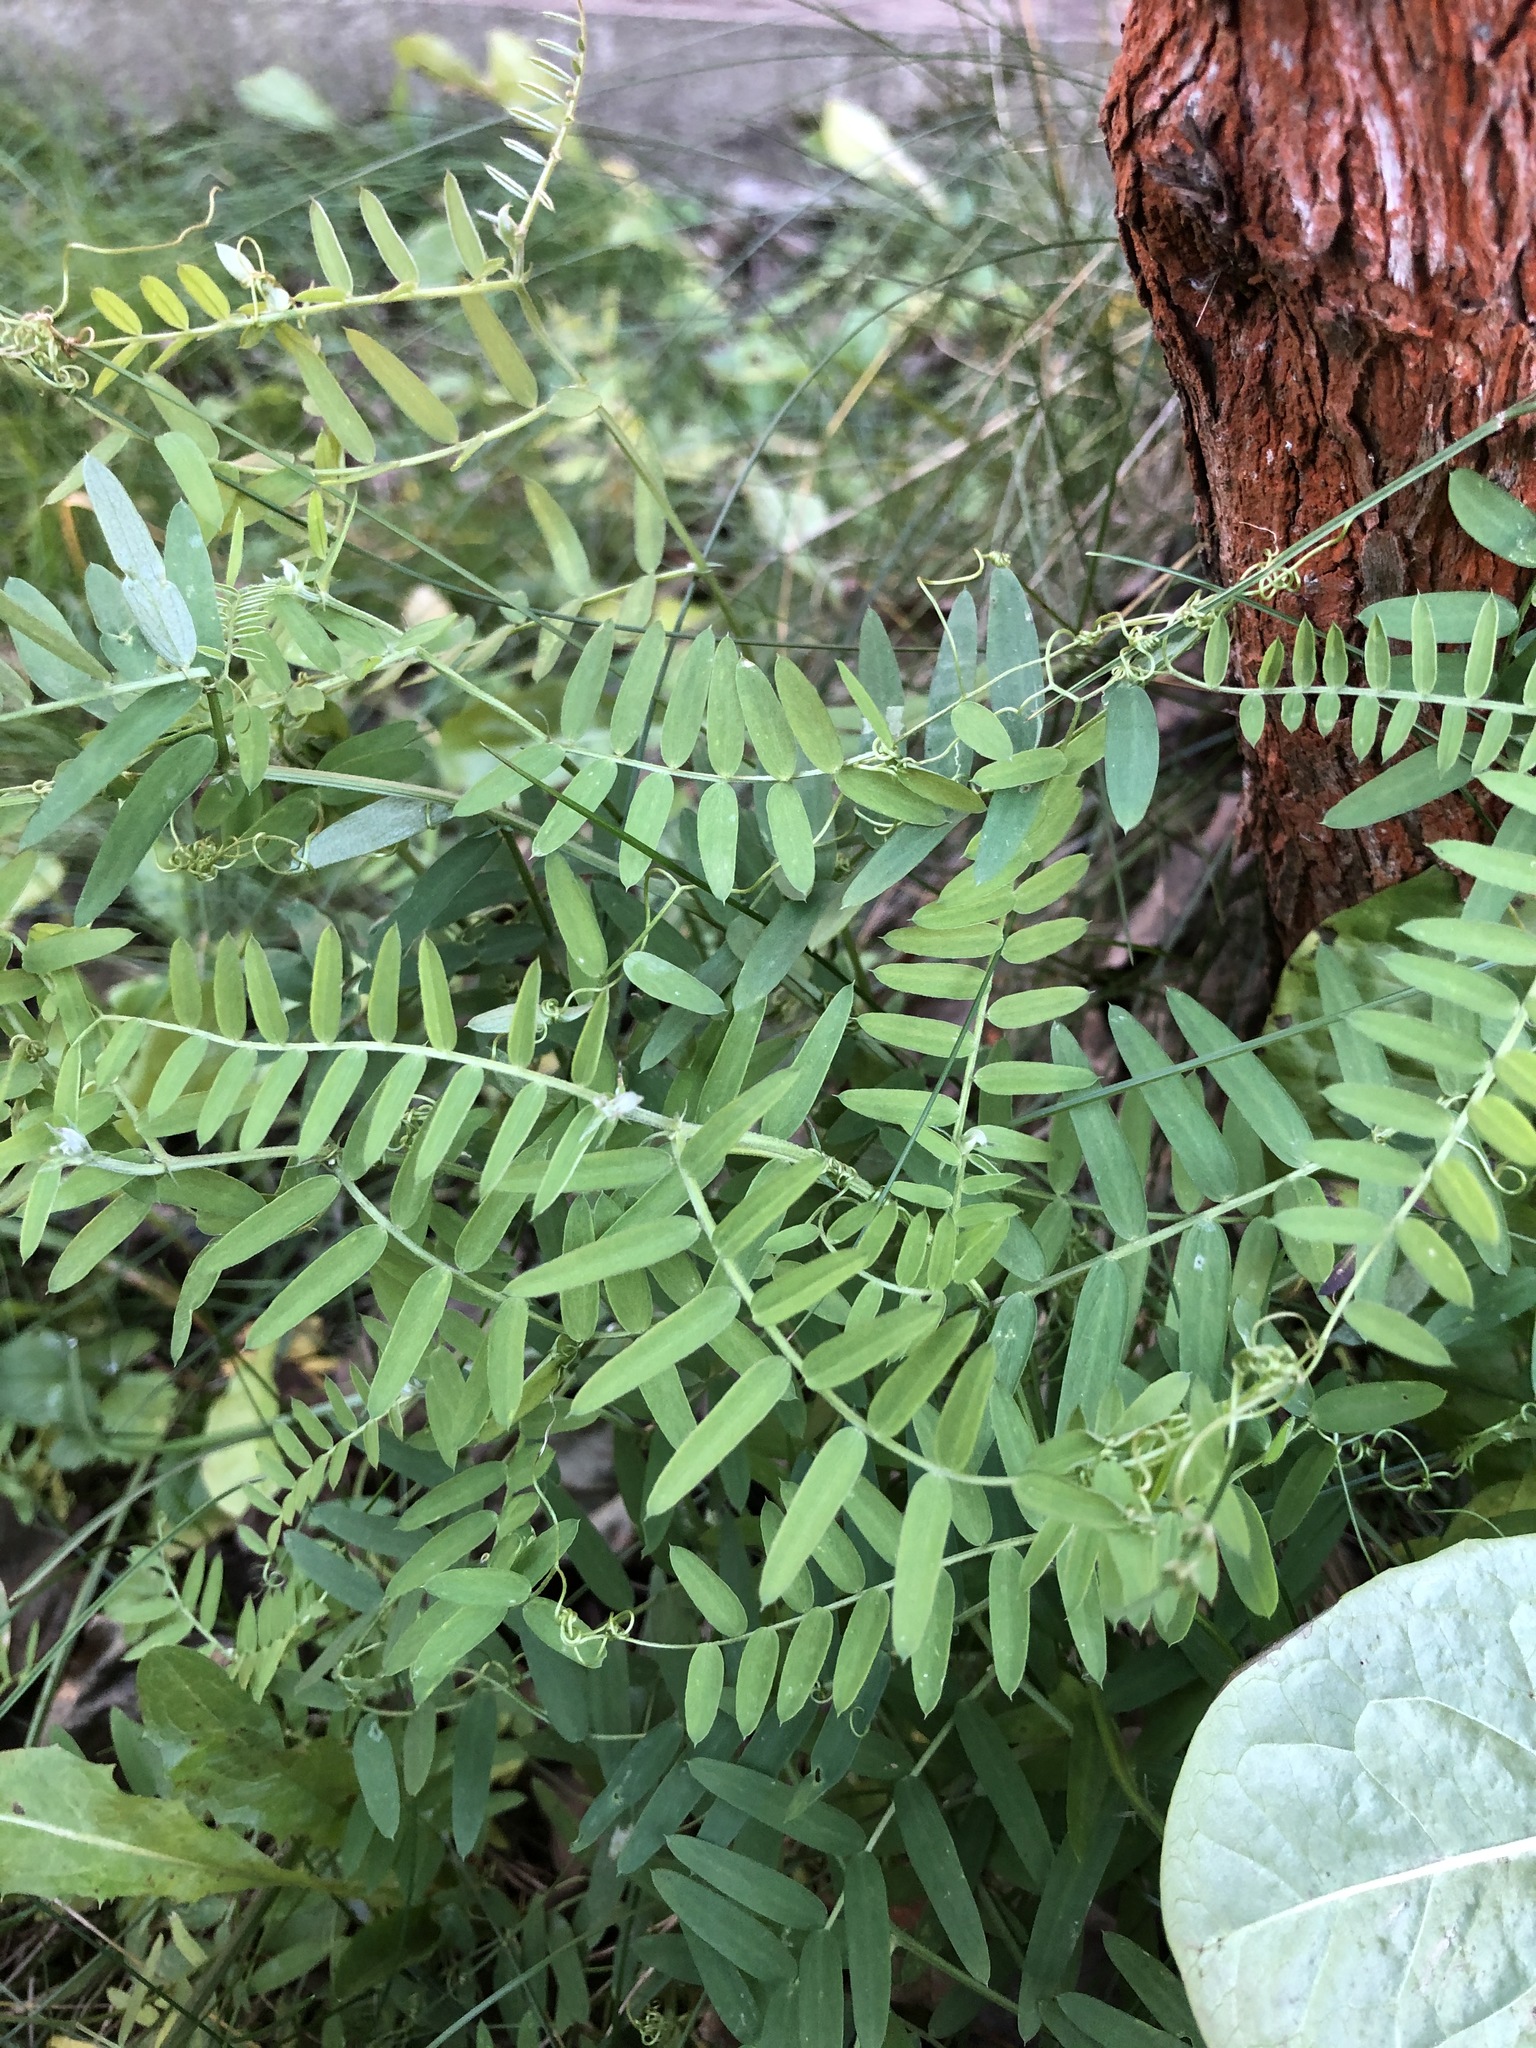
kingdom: Plantae
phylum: Tracheophyta
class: Magnoliopsida
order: Fabales
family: Fabaceae
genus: Vicia
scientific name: Vicia cracca
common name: Bird vetch
